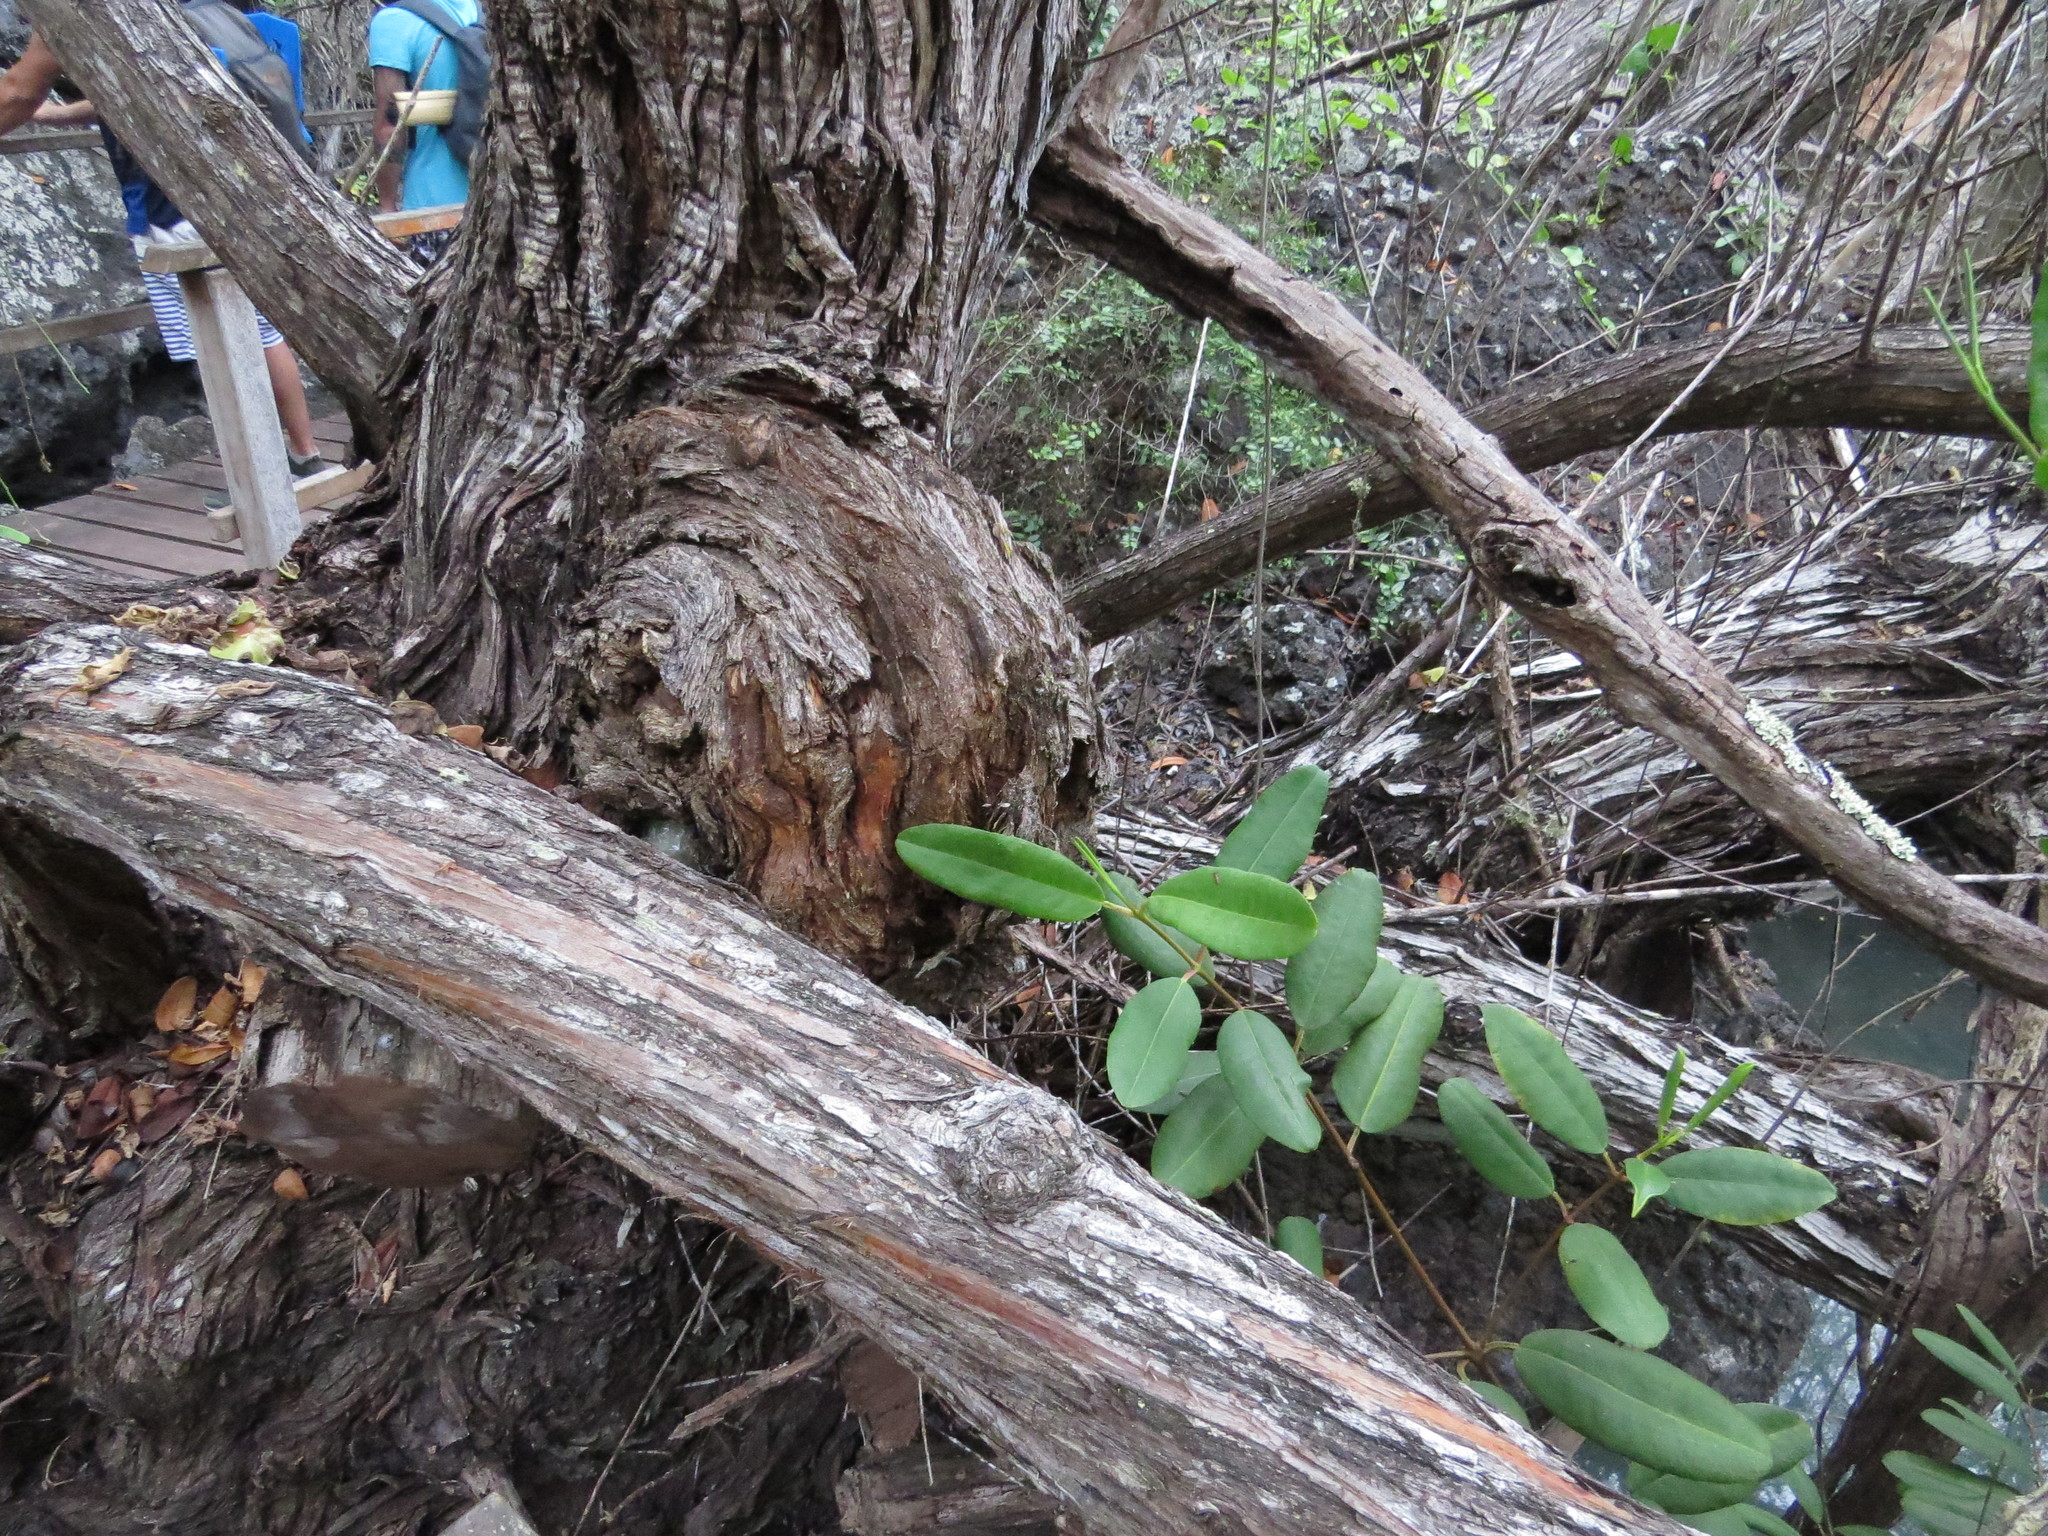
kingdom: Plantae
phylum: Tracheophyta
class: Magnoliopsida
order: Myrtales
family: Combretaceae
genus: Laguncularia
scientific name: Laguncularia racemosa
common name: White mangrove
